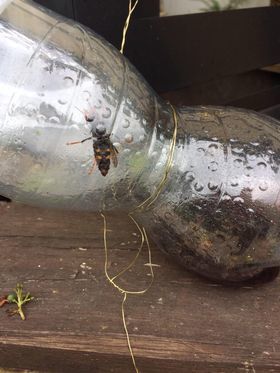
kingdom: Animalia
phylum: Arthropoda
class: Insecta
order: Hymenoptera
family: Vespidae
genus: Vespa
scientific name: Vespa velutina
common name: Asian hornet
